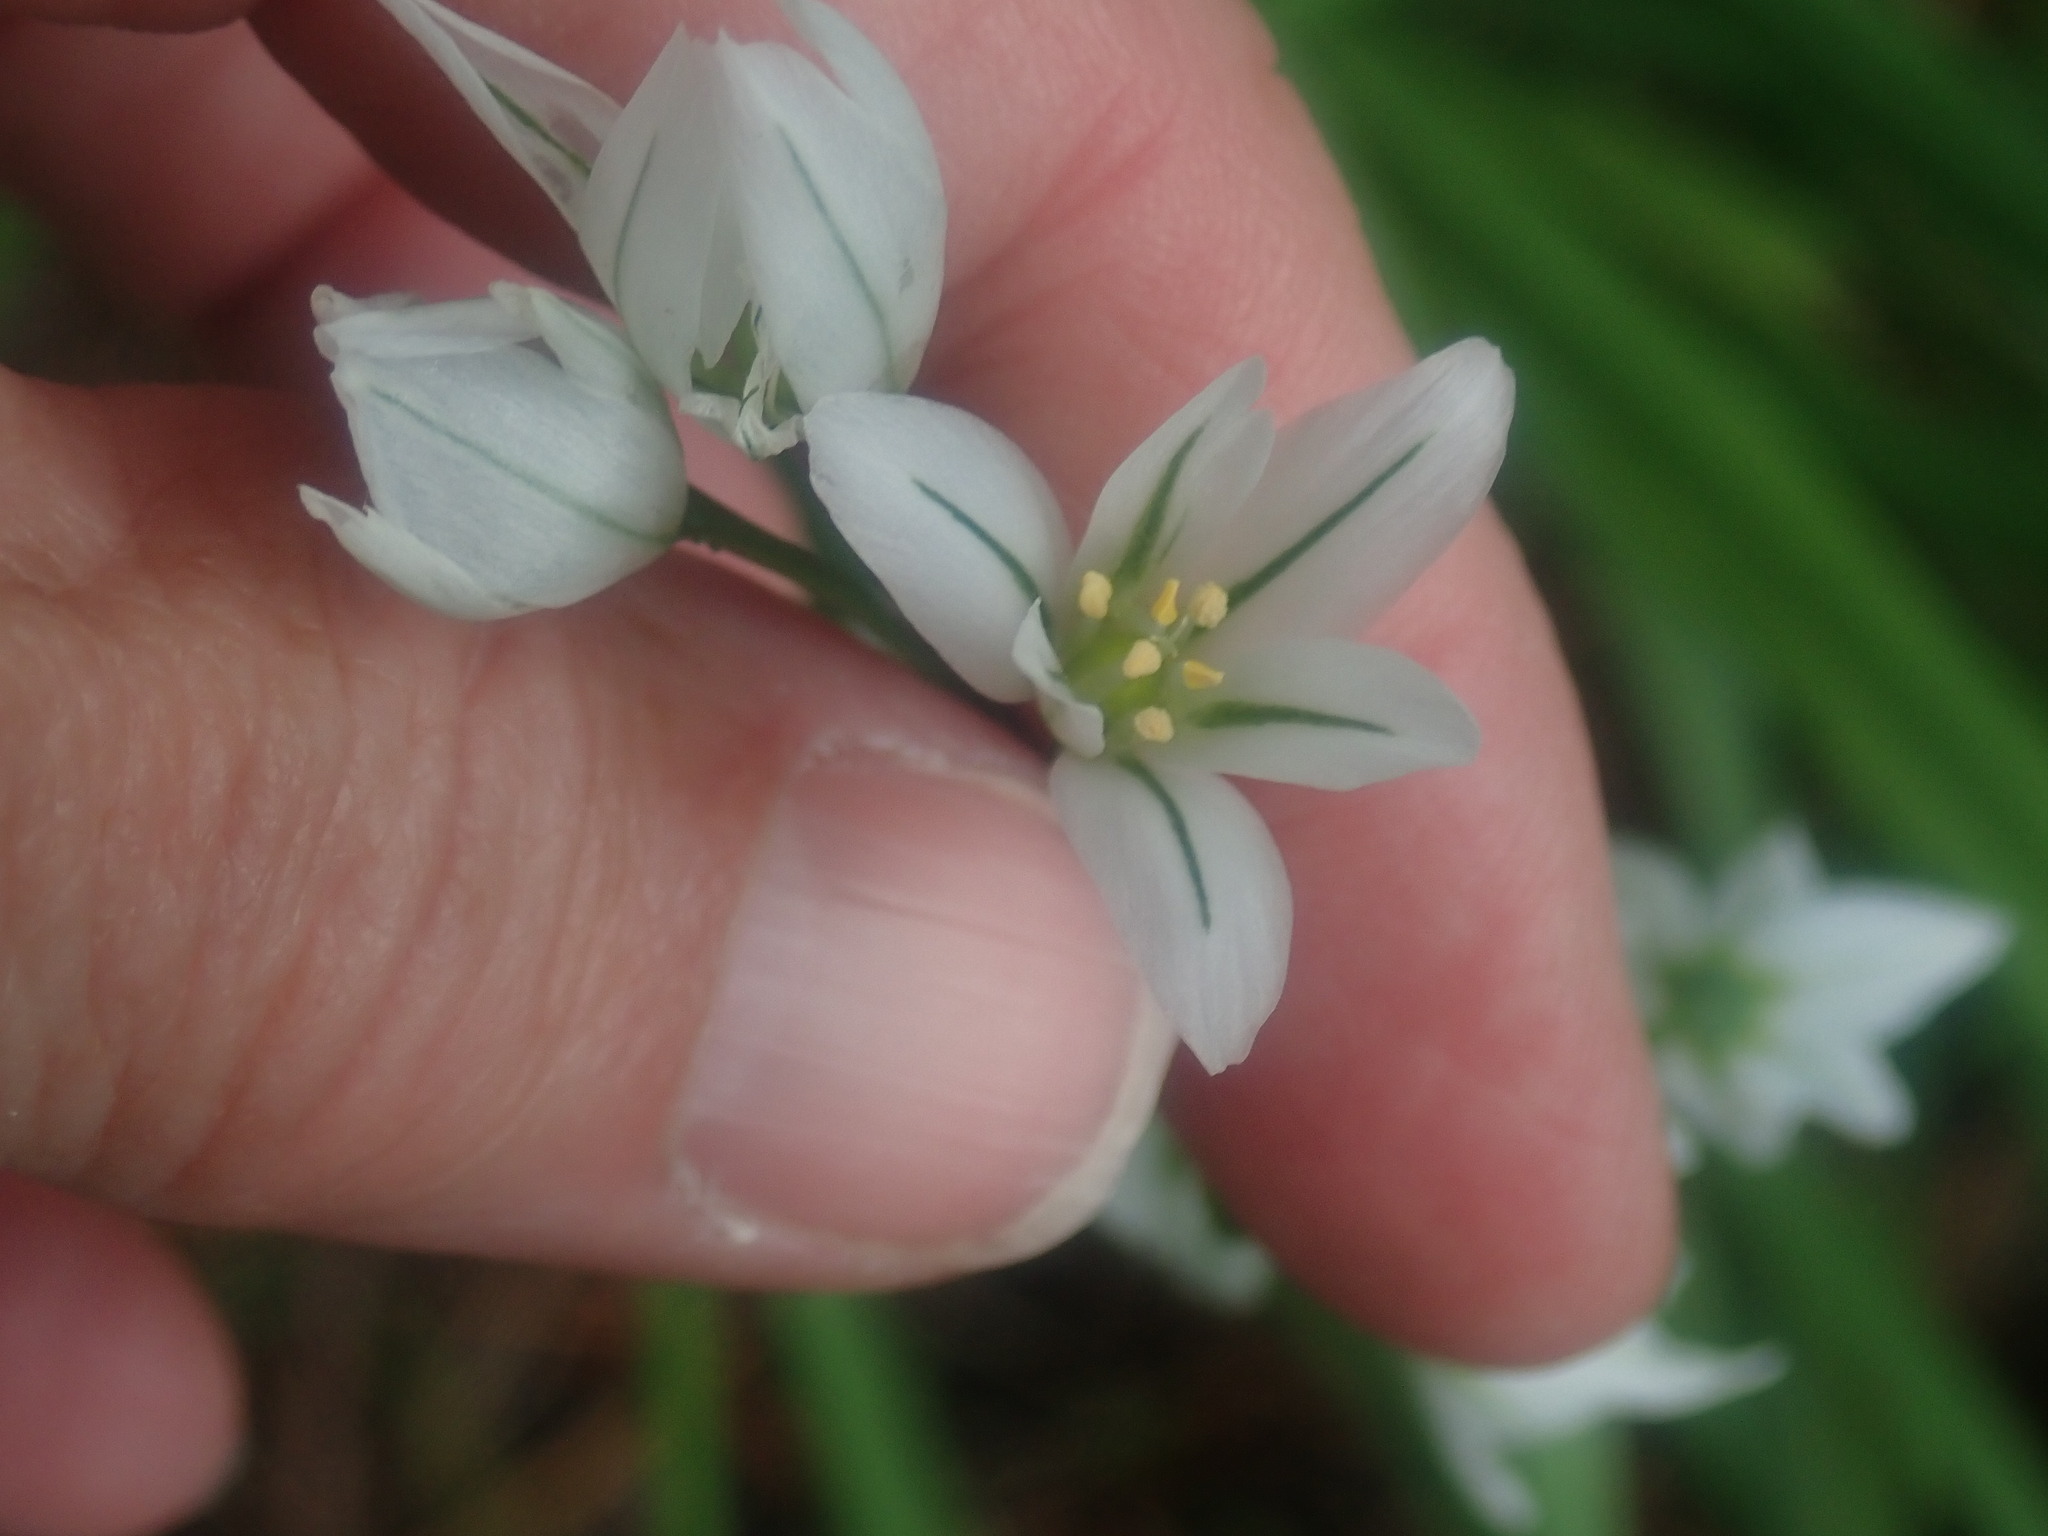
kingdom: Plantae
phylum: Tracheophyta
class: Liliopsida
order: Asparagales
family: Amaryllidaceae
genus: Allium
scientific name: Allium triquetrum
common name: Three-cornered garlic
